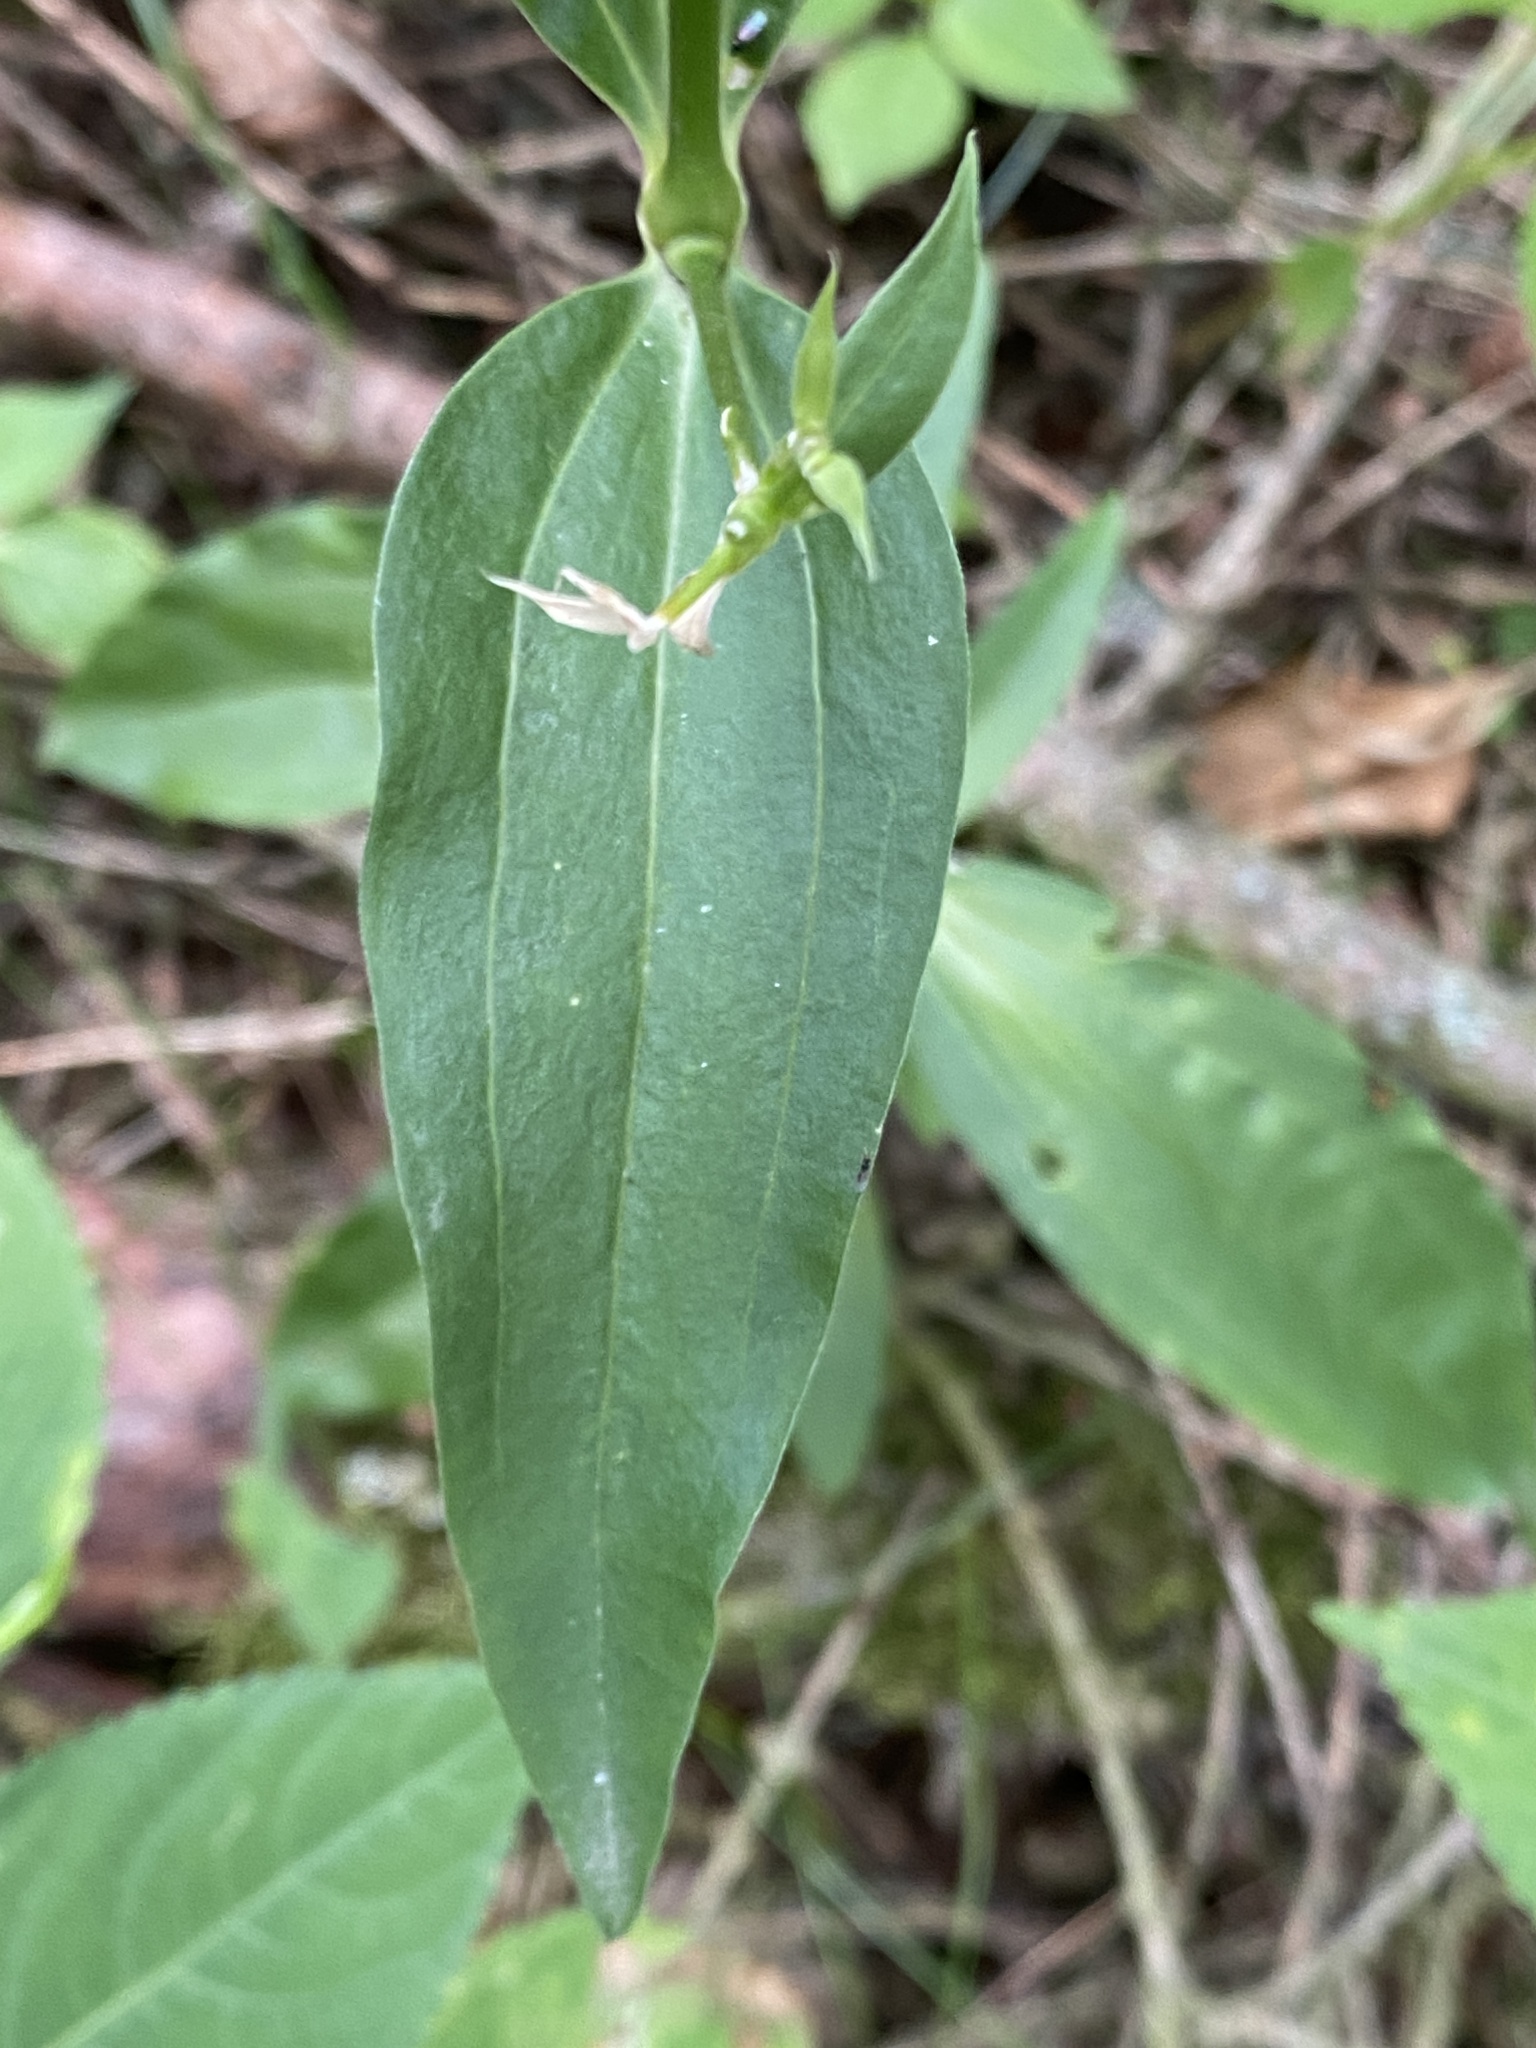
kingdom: Plantae
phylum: Tracheophyta
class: Magnoliopsida
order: Caryophyllales
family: Caryophyllaceae
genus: Saponaria
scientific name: Saponaria officinalis
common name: Soapwort
